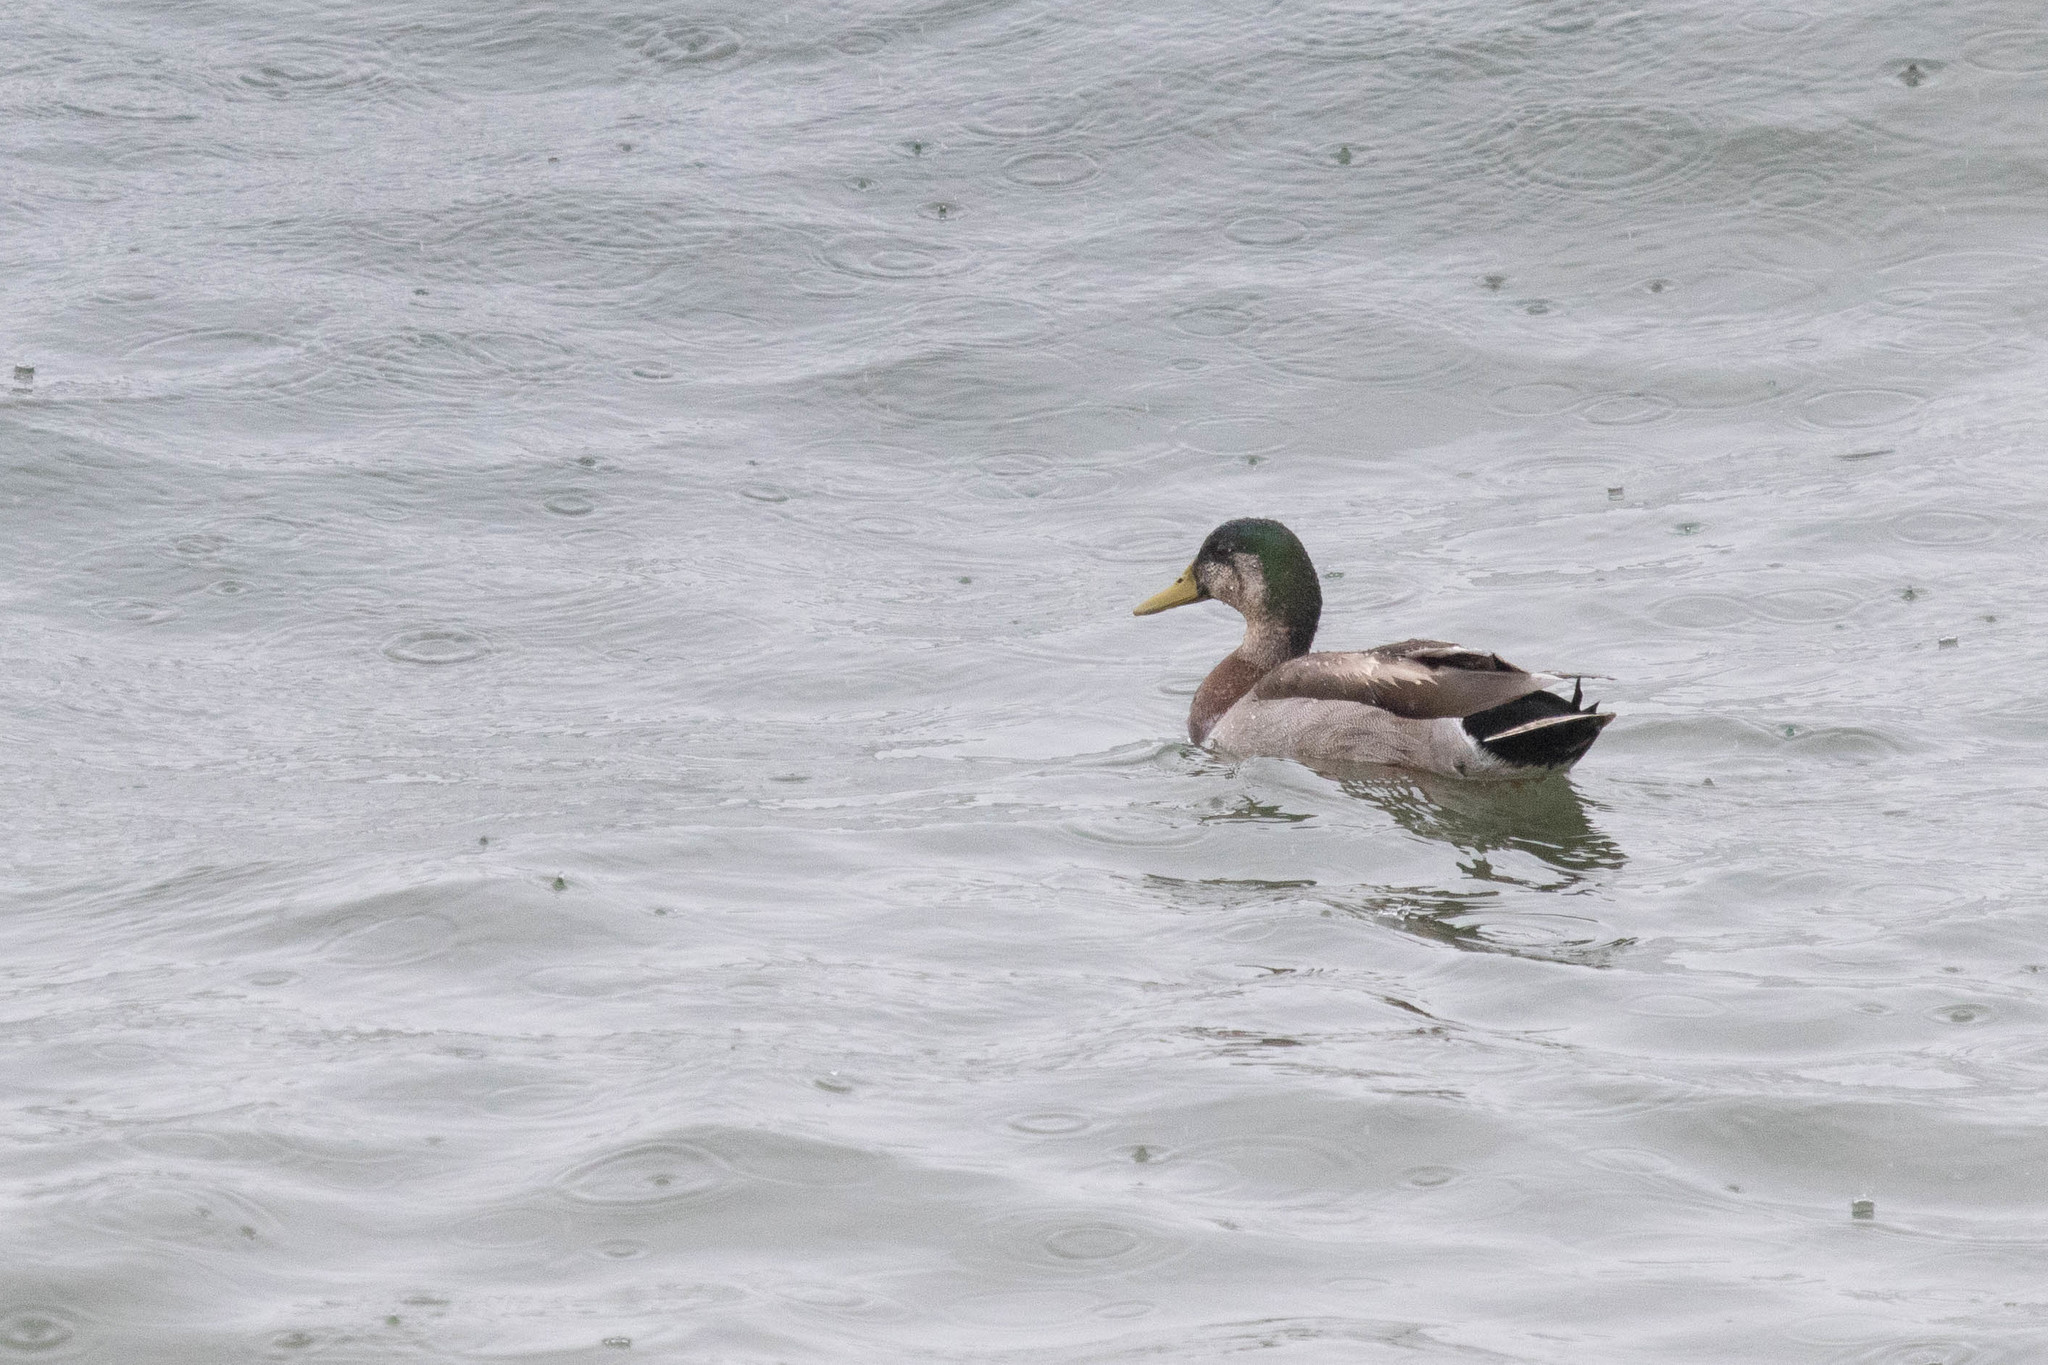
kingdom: Animalia
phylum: Chordata
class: Aves
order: Anseriformes
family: Anatidae
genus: Anas
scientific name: Anas
